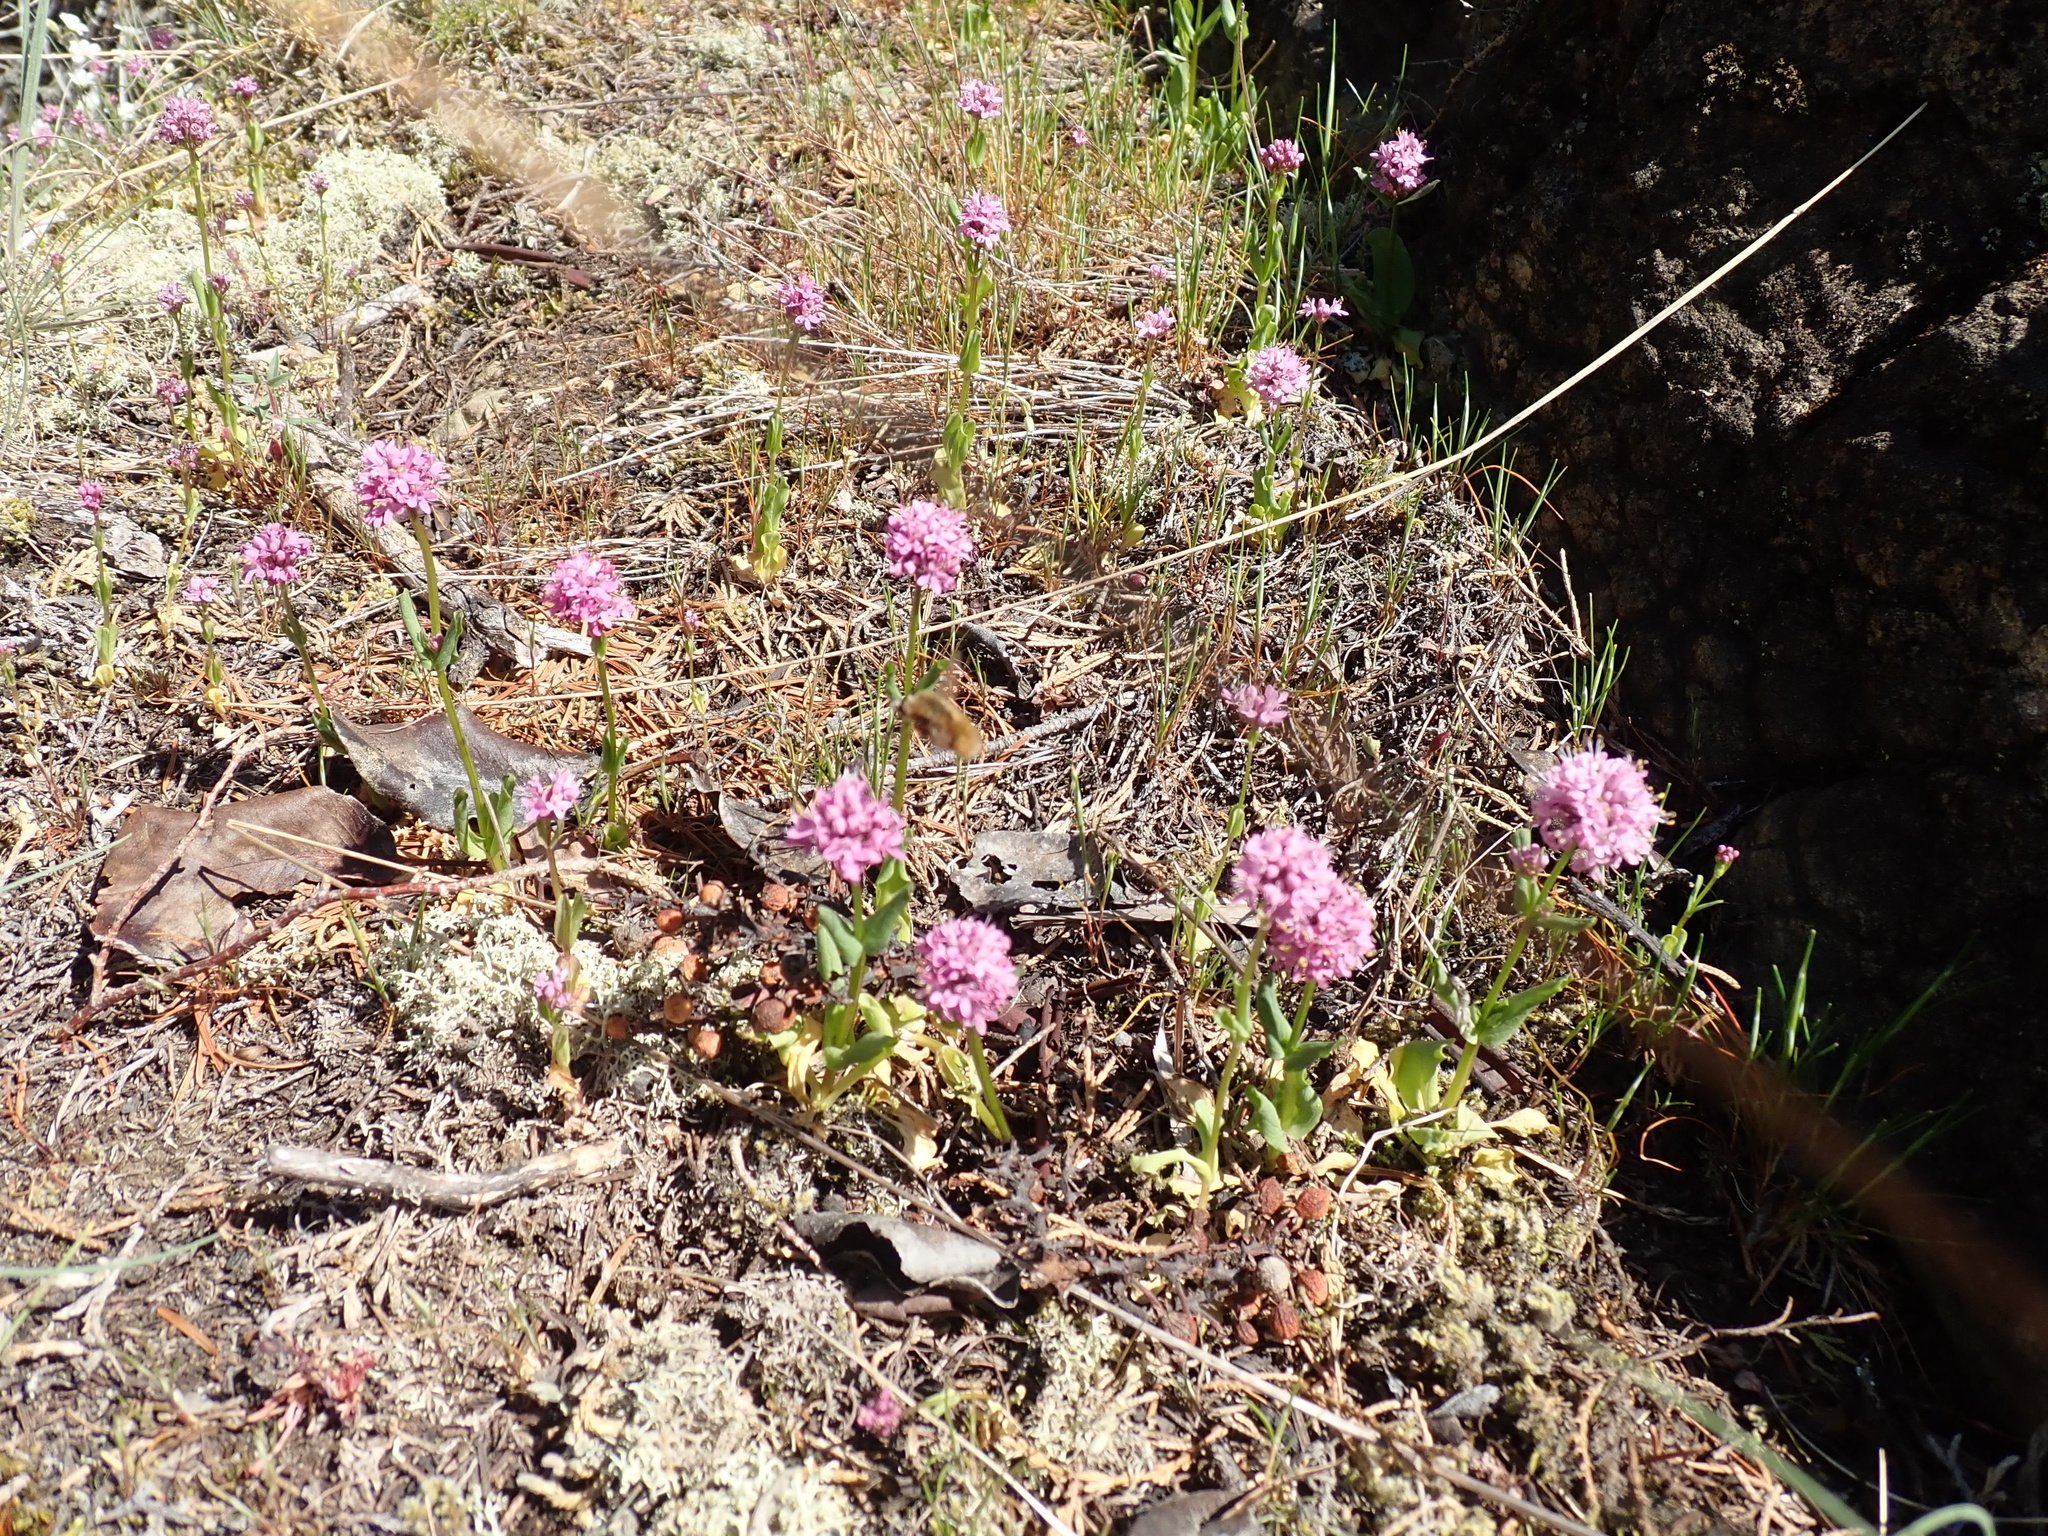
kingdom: Plantae
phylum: Tracheophyta
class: Magnoliopsida
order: Dipsacales
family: Caprifoliaceae
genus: Plectritis
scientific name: Plectritis congesta
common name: Pink plectritis
